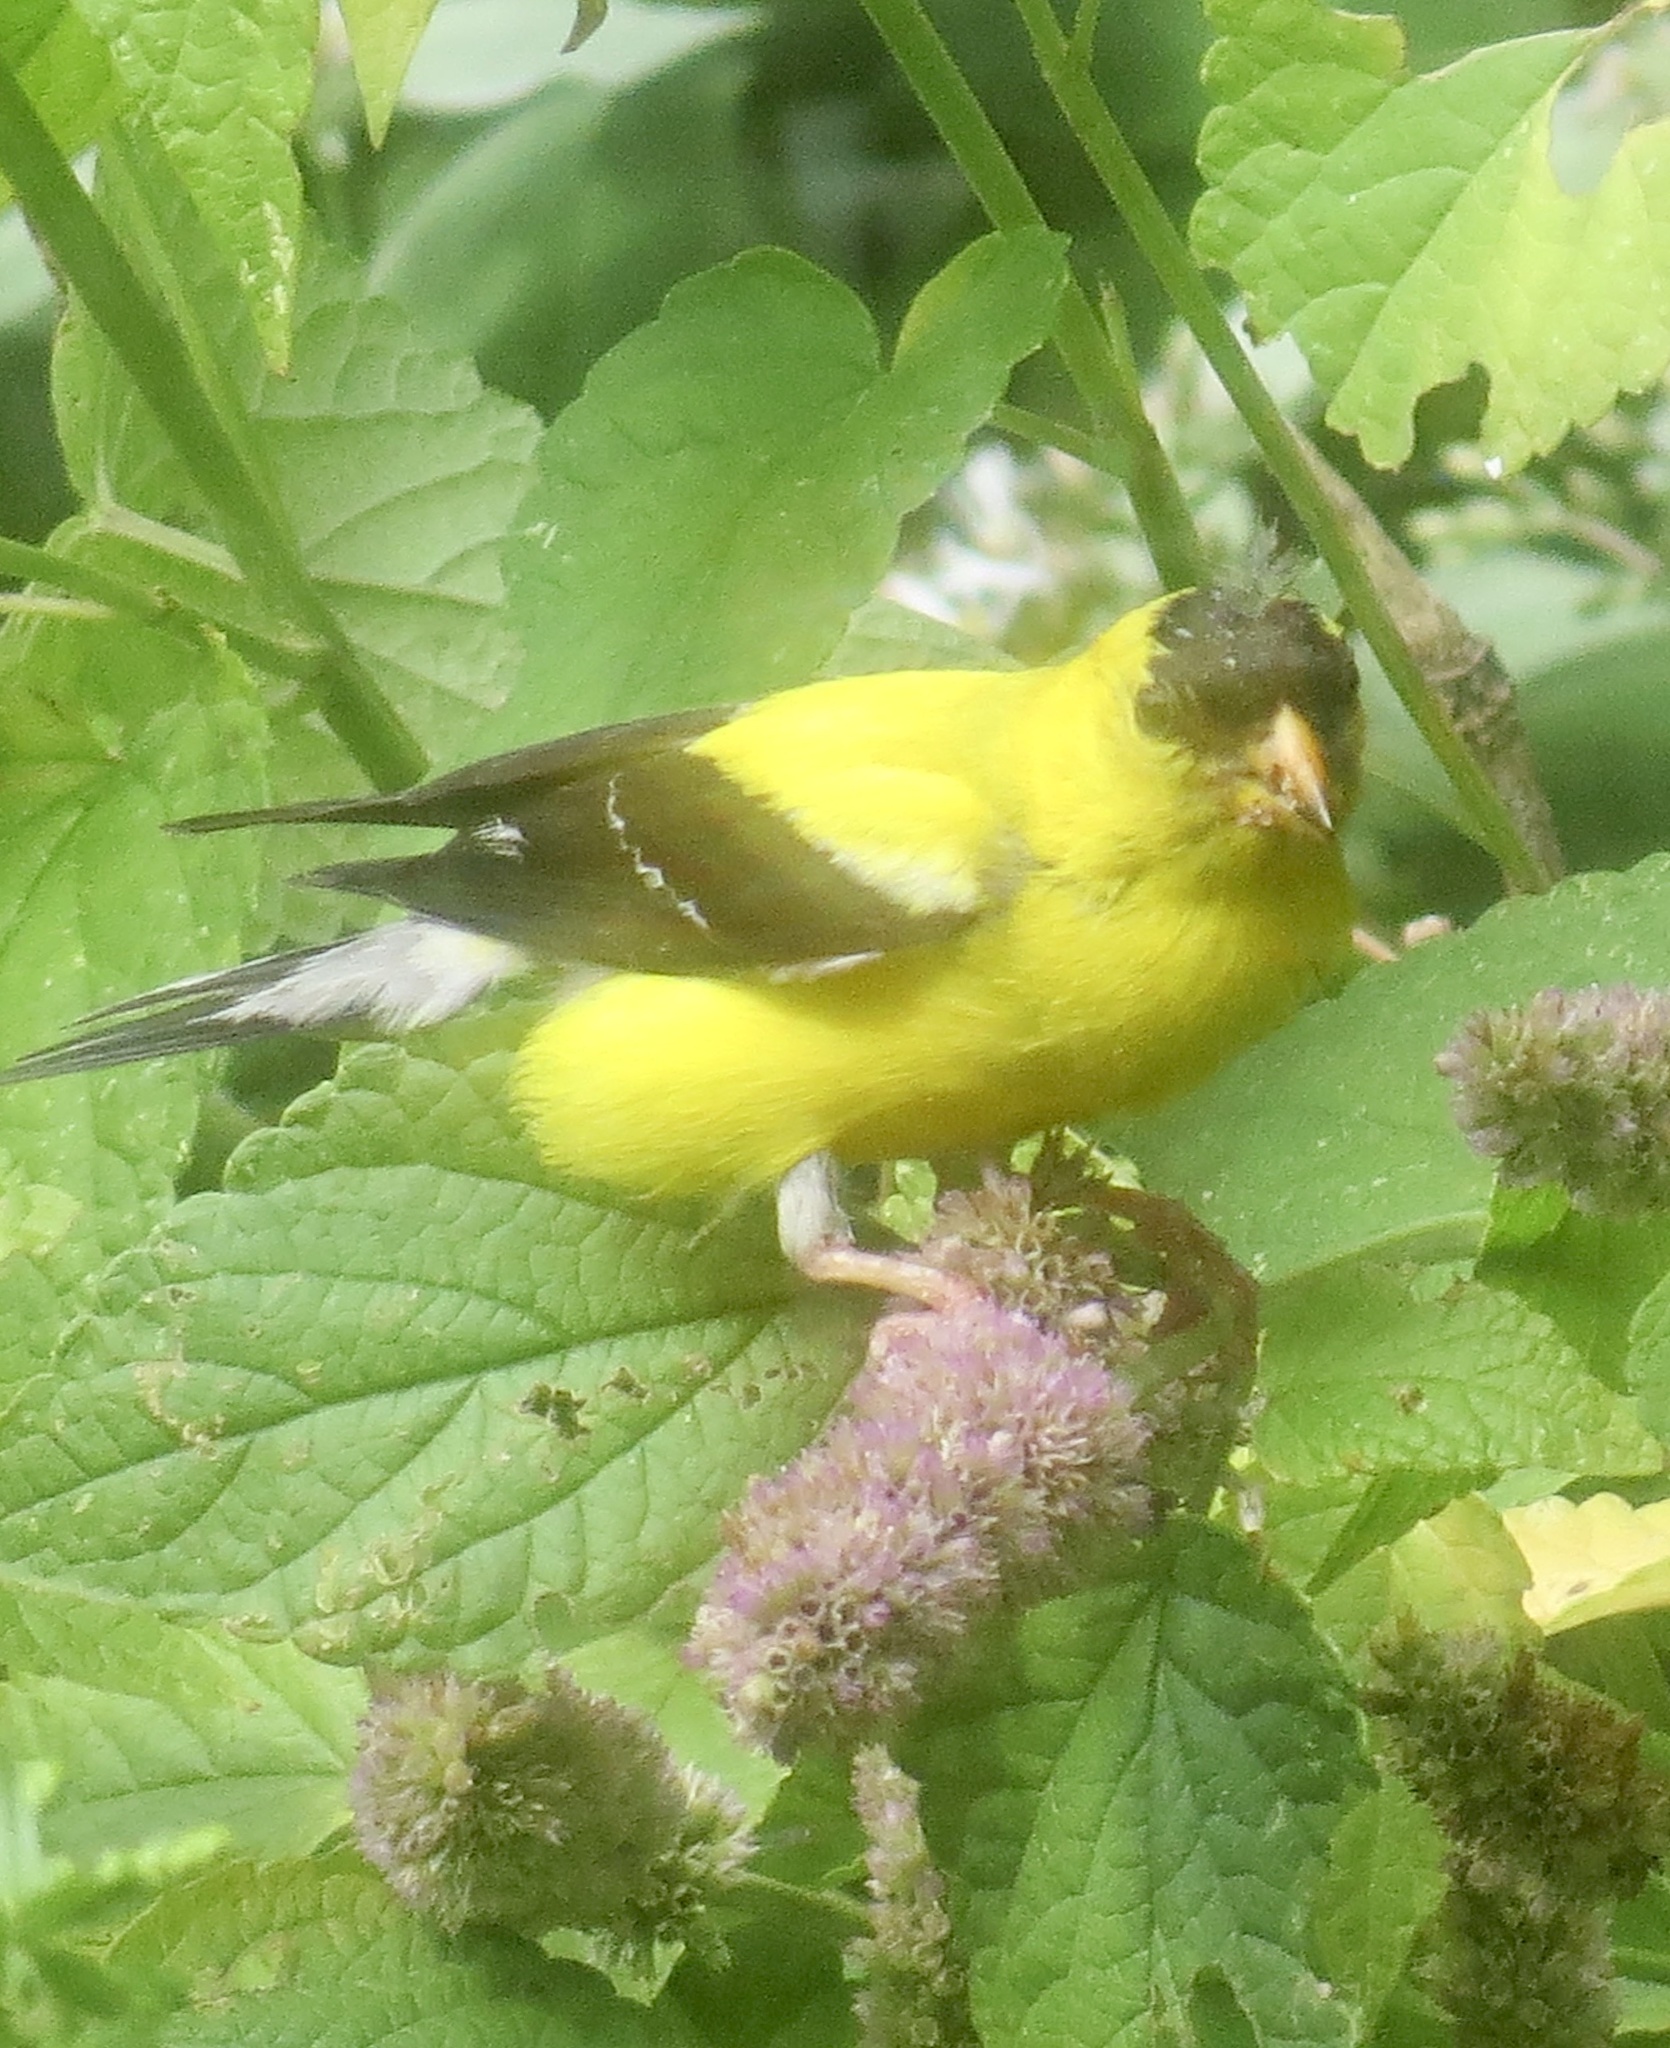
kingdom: Animalia
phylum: Chordata
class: Aves
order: Passeriformes
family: Fringillidae
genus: Spinus
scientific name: Spinus tristis
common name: American goldfinch
